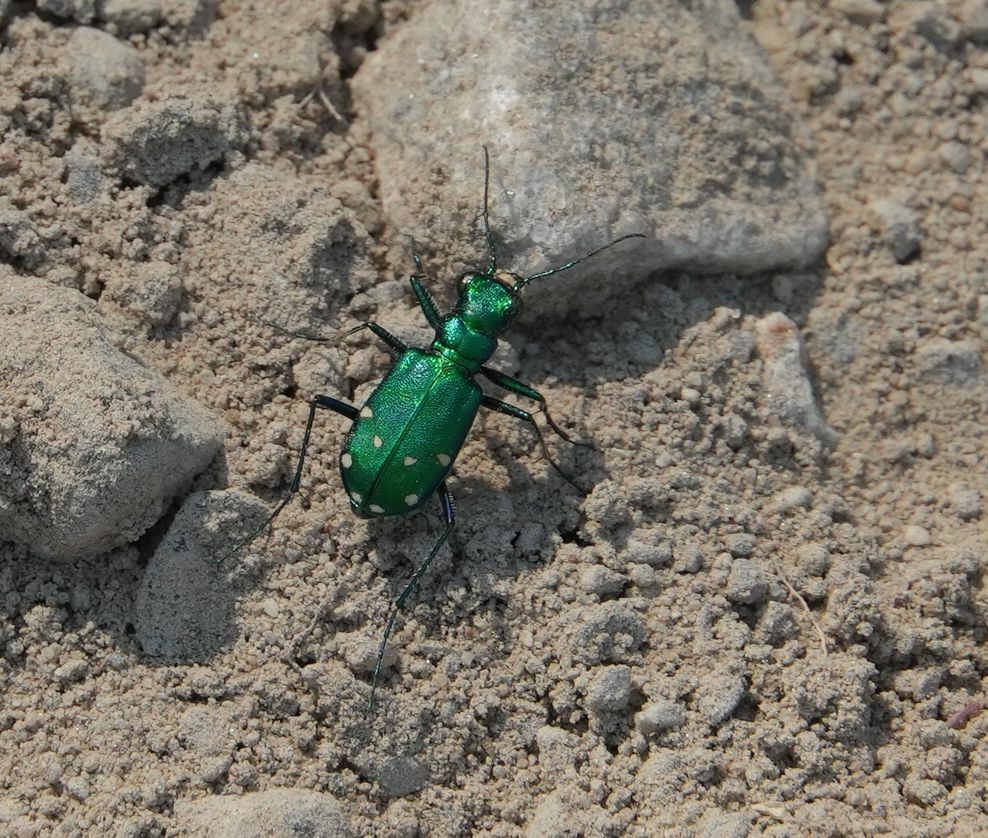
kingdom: Animalia
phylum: Arthropoda
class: Insecta
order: Coleoptera
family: Carabidae
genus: Cicindela
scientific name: Cicindela sexguttata
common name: Six-spotted tiger beetle
